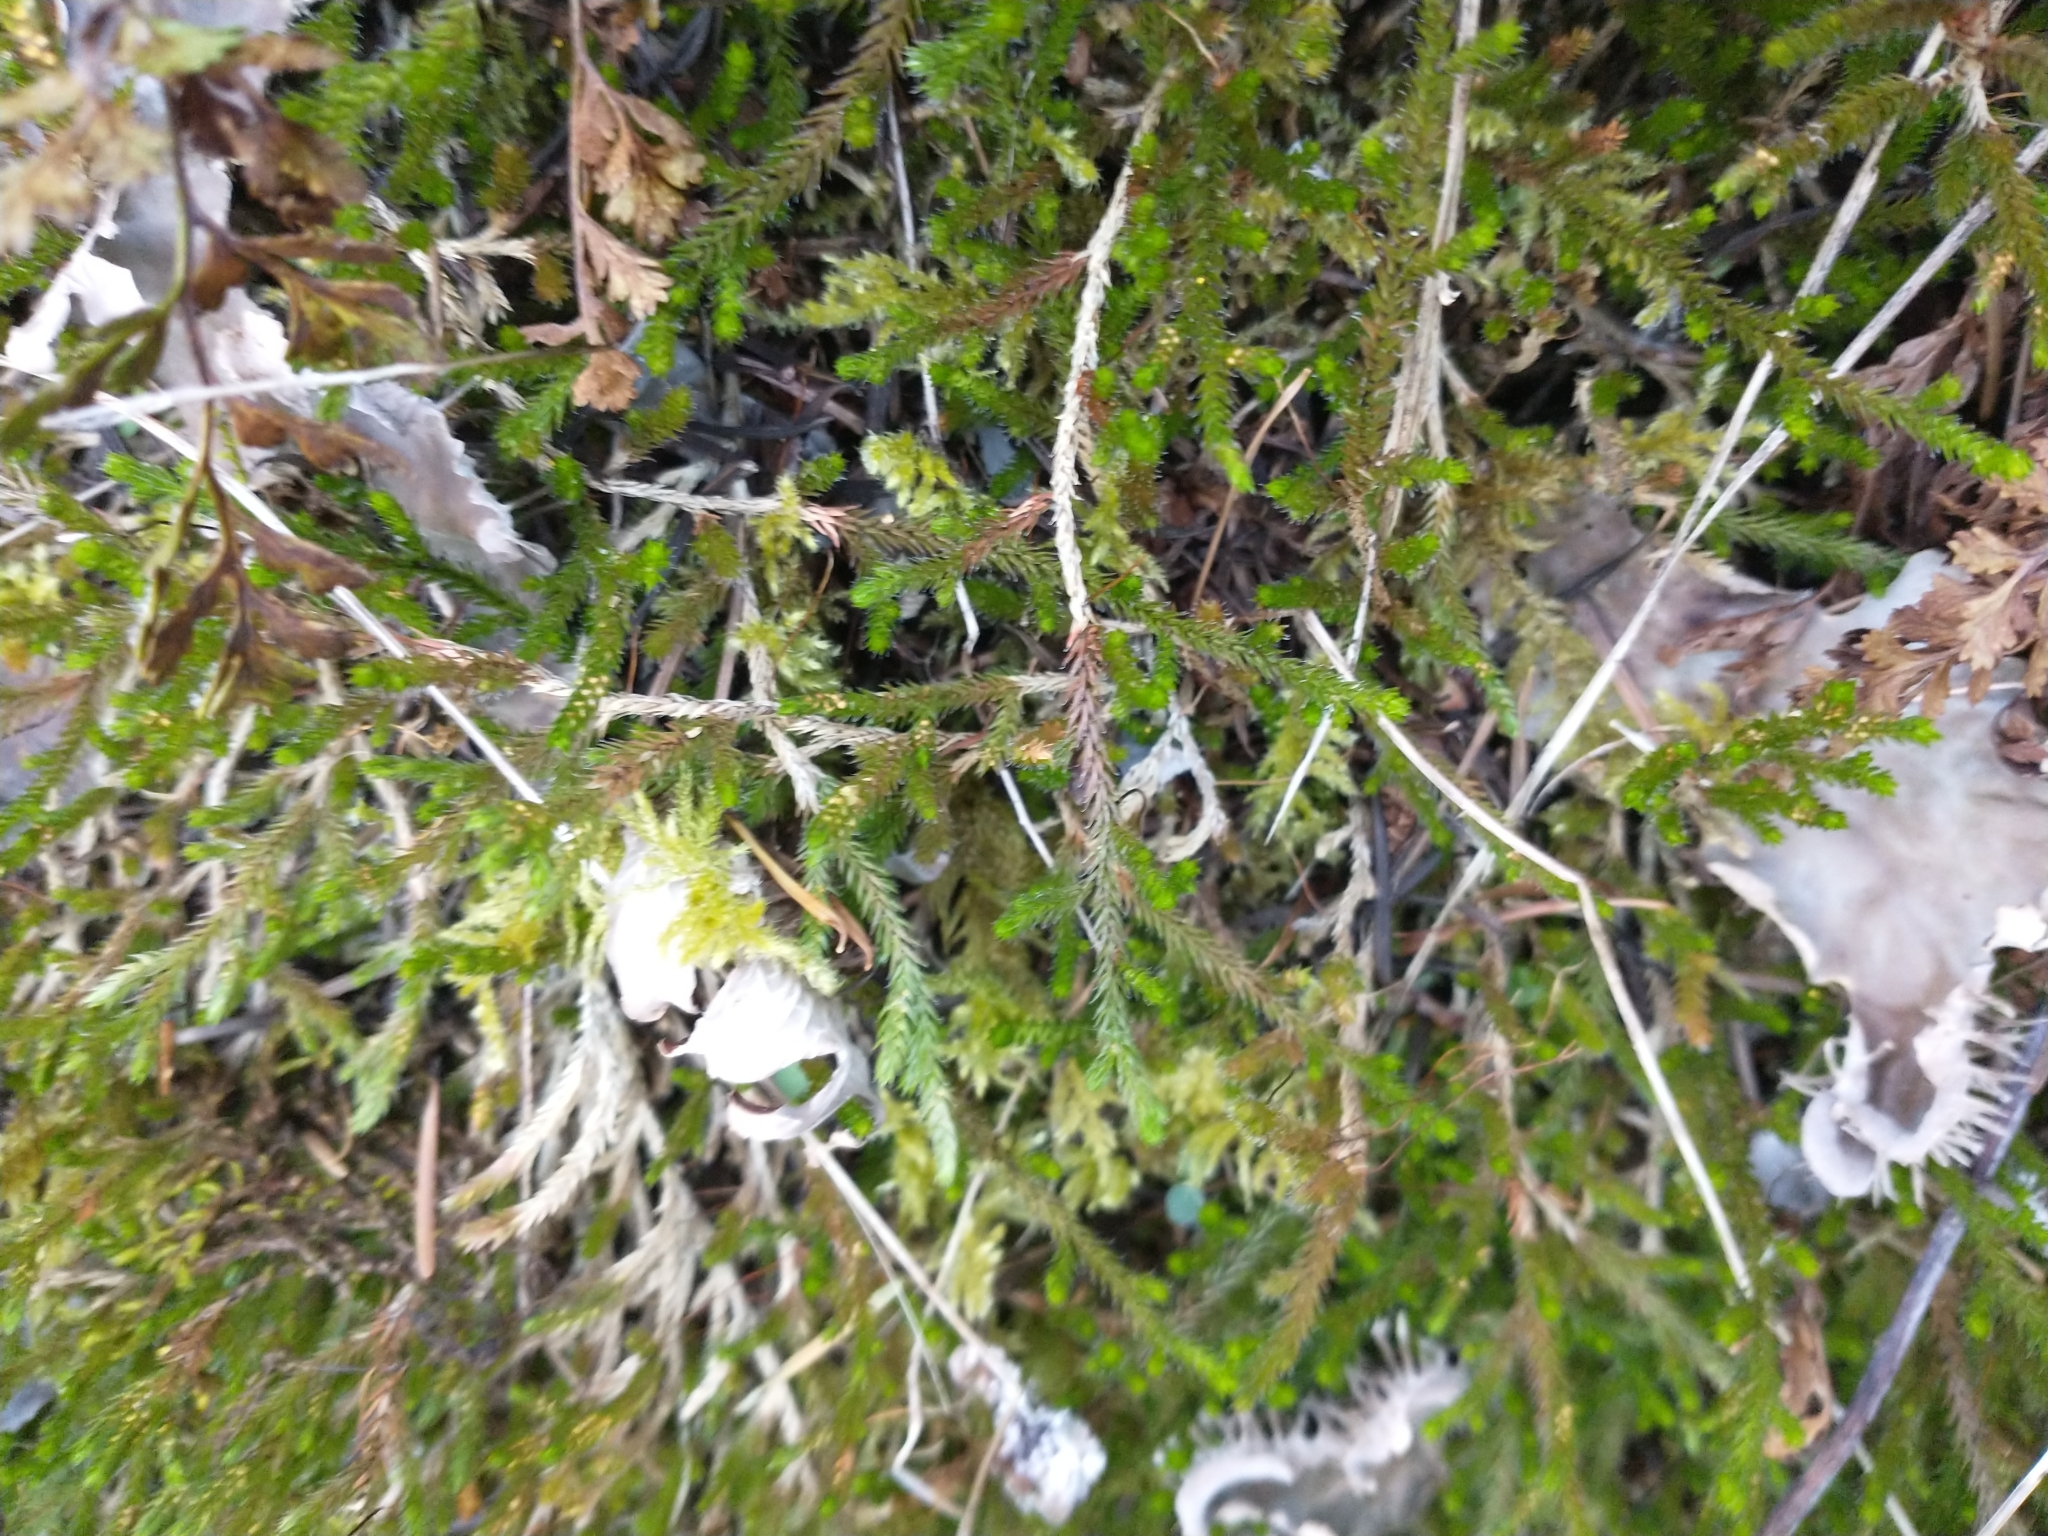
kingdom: Plantae
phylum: Tracheophyta
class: Lycopodiopsida
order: Selaginellales
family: Selaginellaceae
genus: Selaginella
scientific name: Selaginella wallacei
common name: Wallace's selaginella
